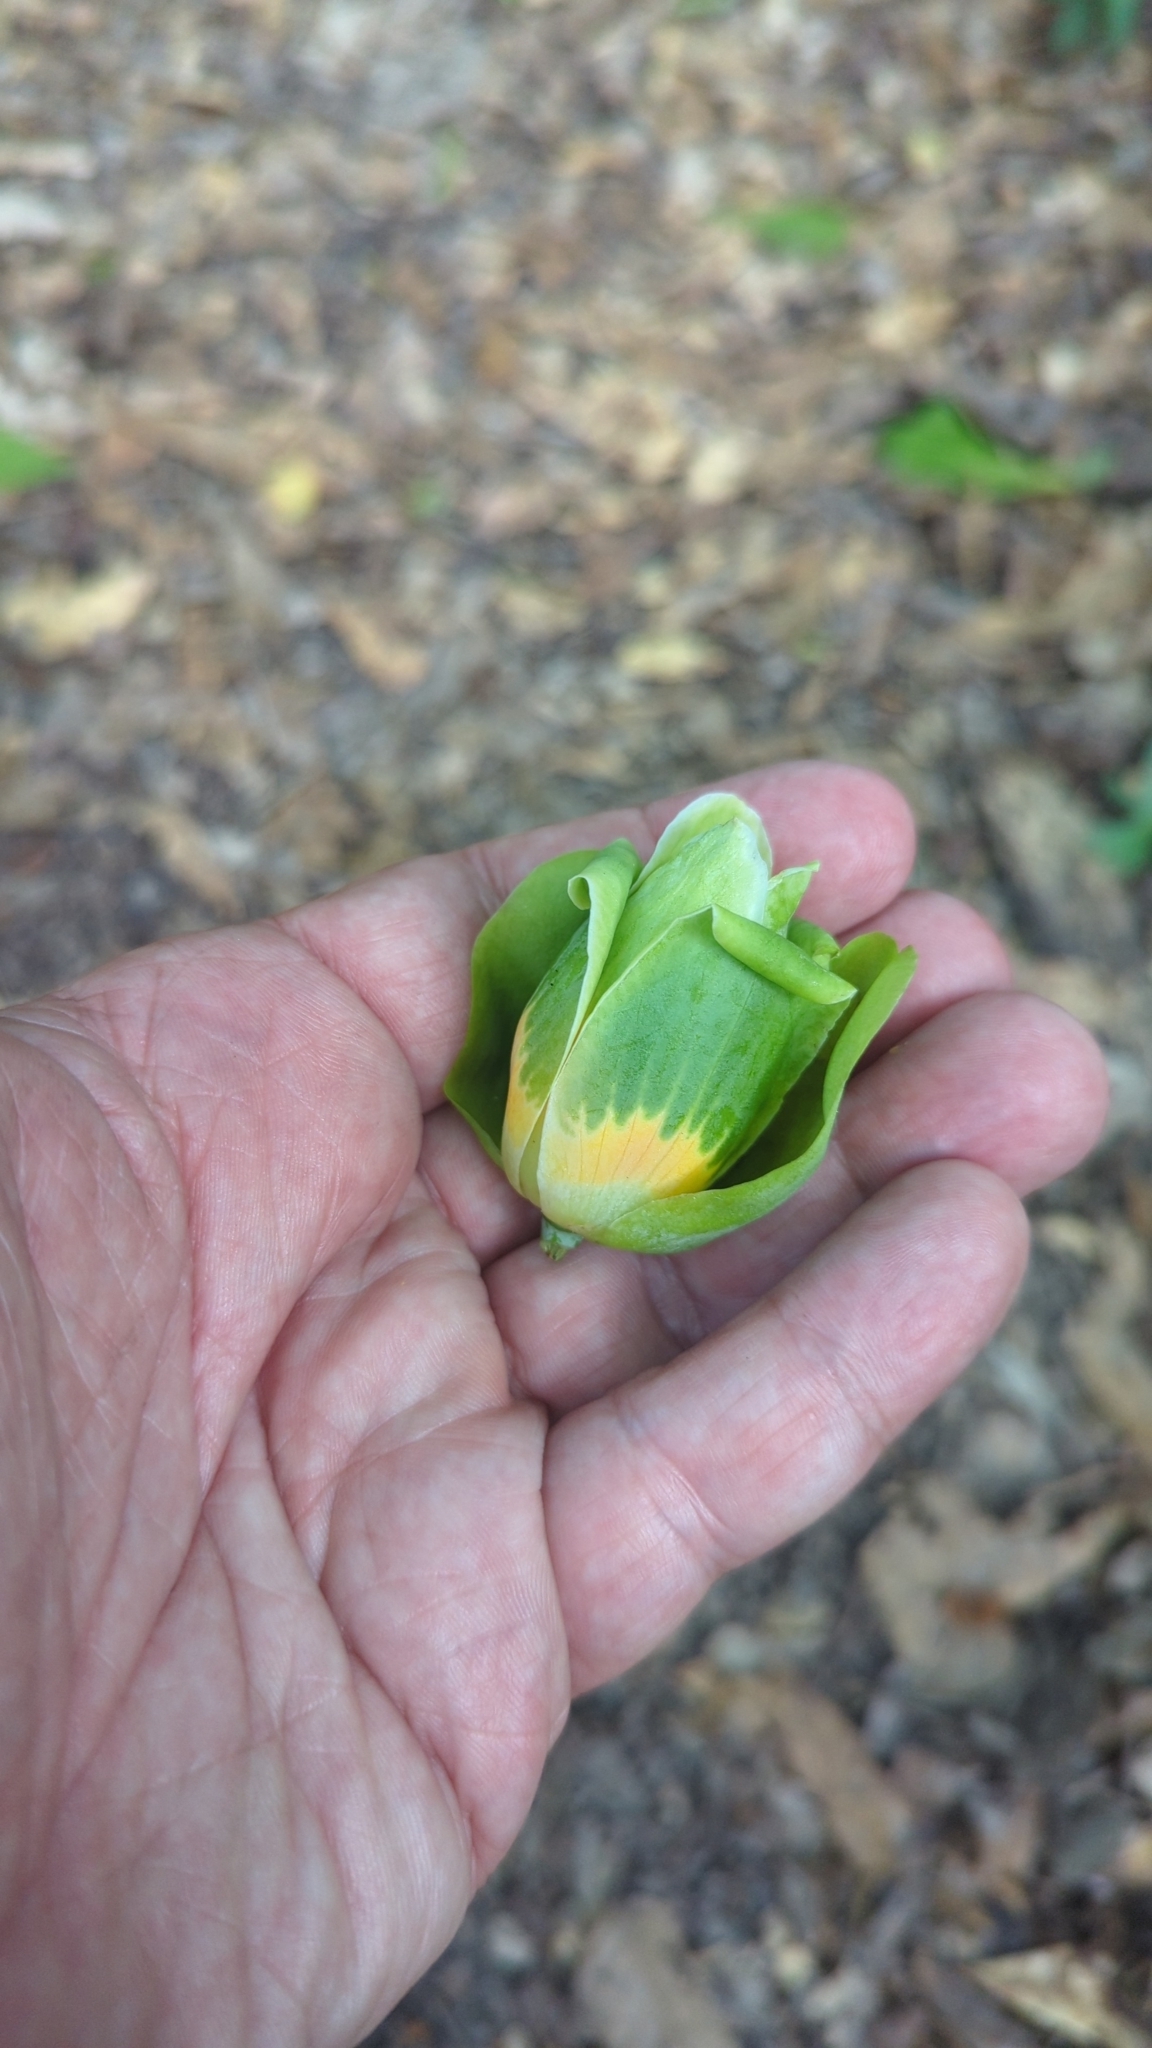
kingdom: Plantae
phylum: Tracheophyta
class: Magnoliopsida
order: Magnoliales
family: Magnoliaceae
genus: Liriodendron
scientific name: Liriodendron tulipifera
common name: Tulip tree
